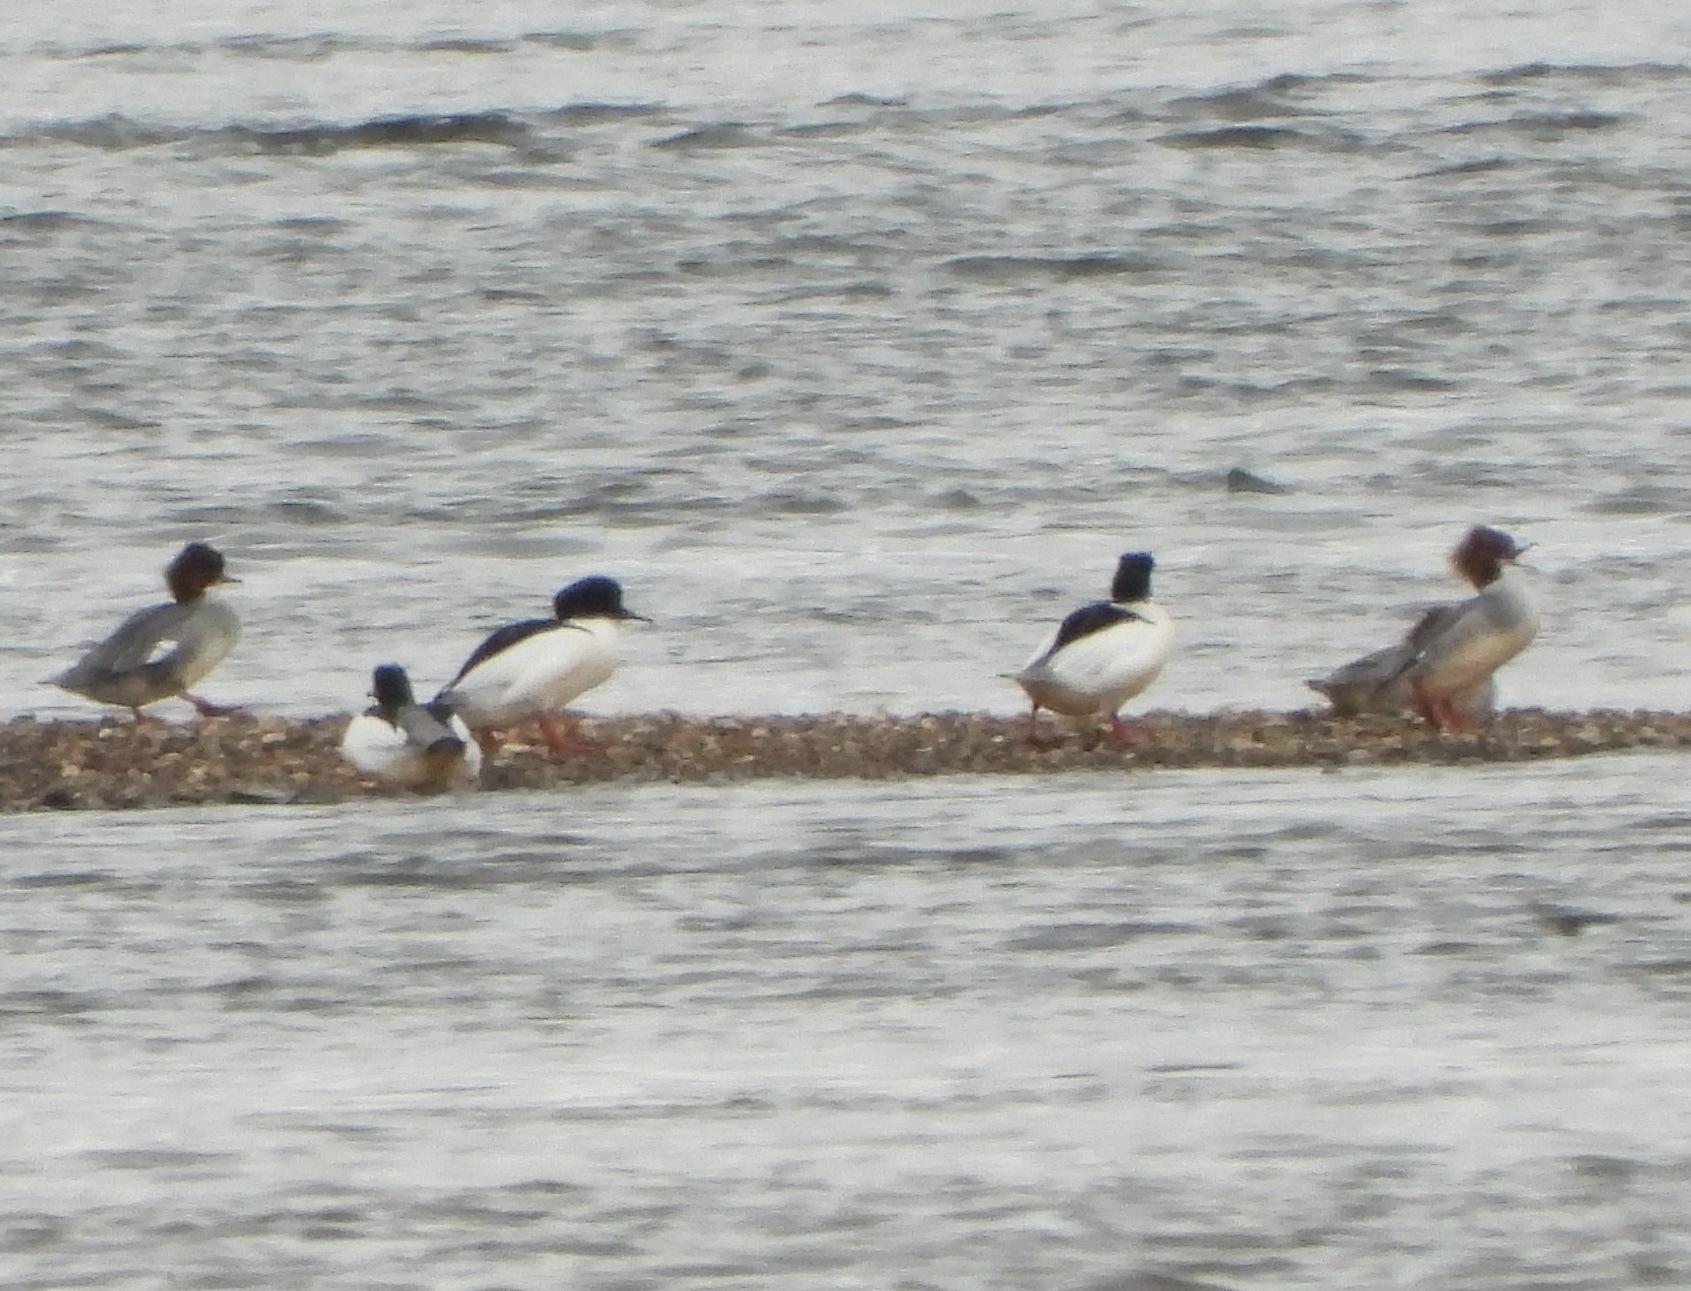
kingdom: Animalia
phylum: Chordata
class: Aves
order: Anseriformes
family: Anatidae
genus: Mergus
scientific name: Mergus merganser
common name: Common merganser
